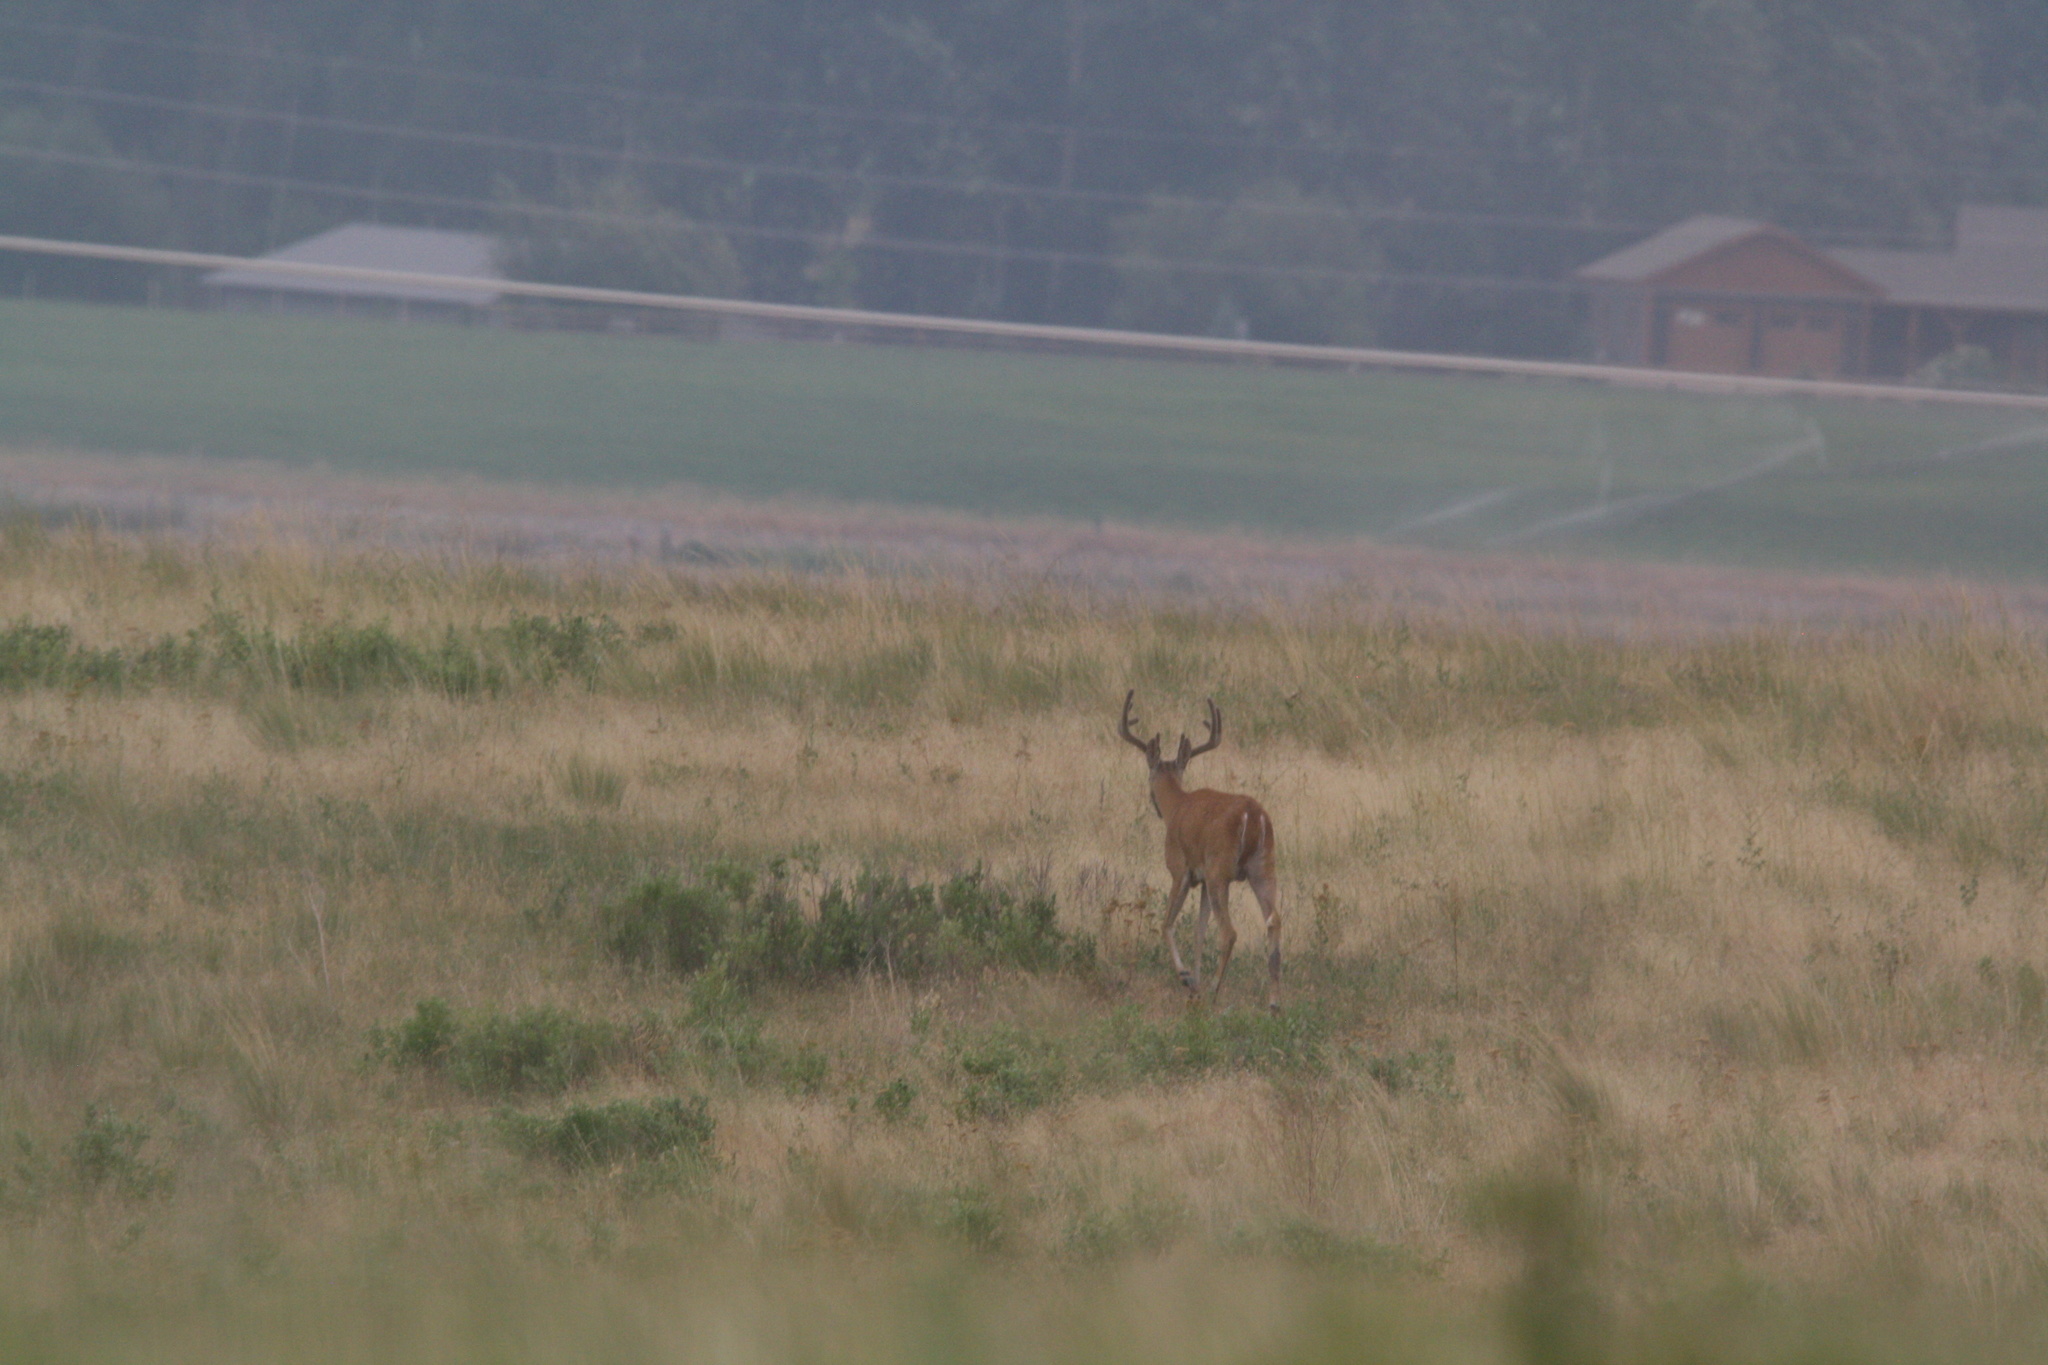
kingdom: Animalia
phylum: Chordata
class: Mammalia
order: Artiodactyla
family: Cervidae
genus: Odocoileus
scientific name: Odocoileus virginianus
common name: White-tailed deer
